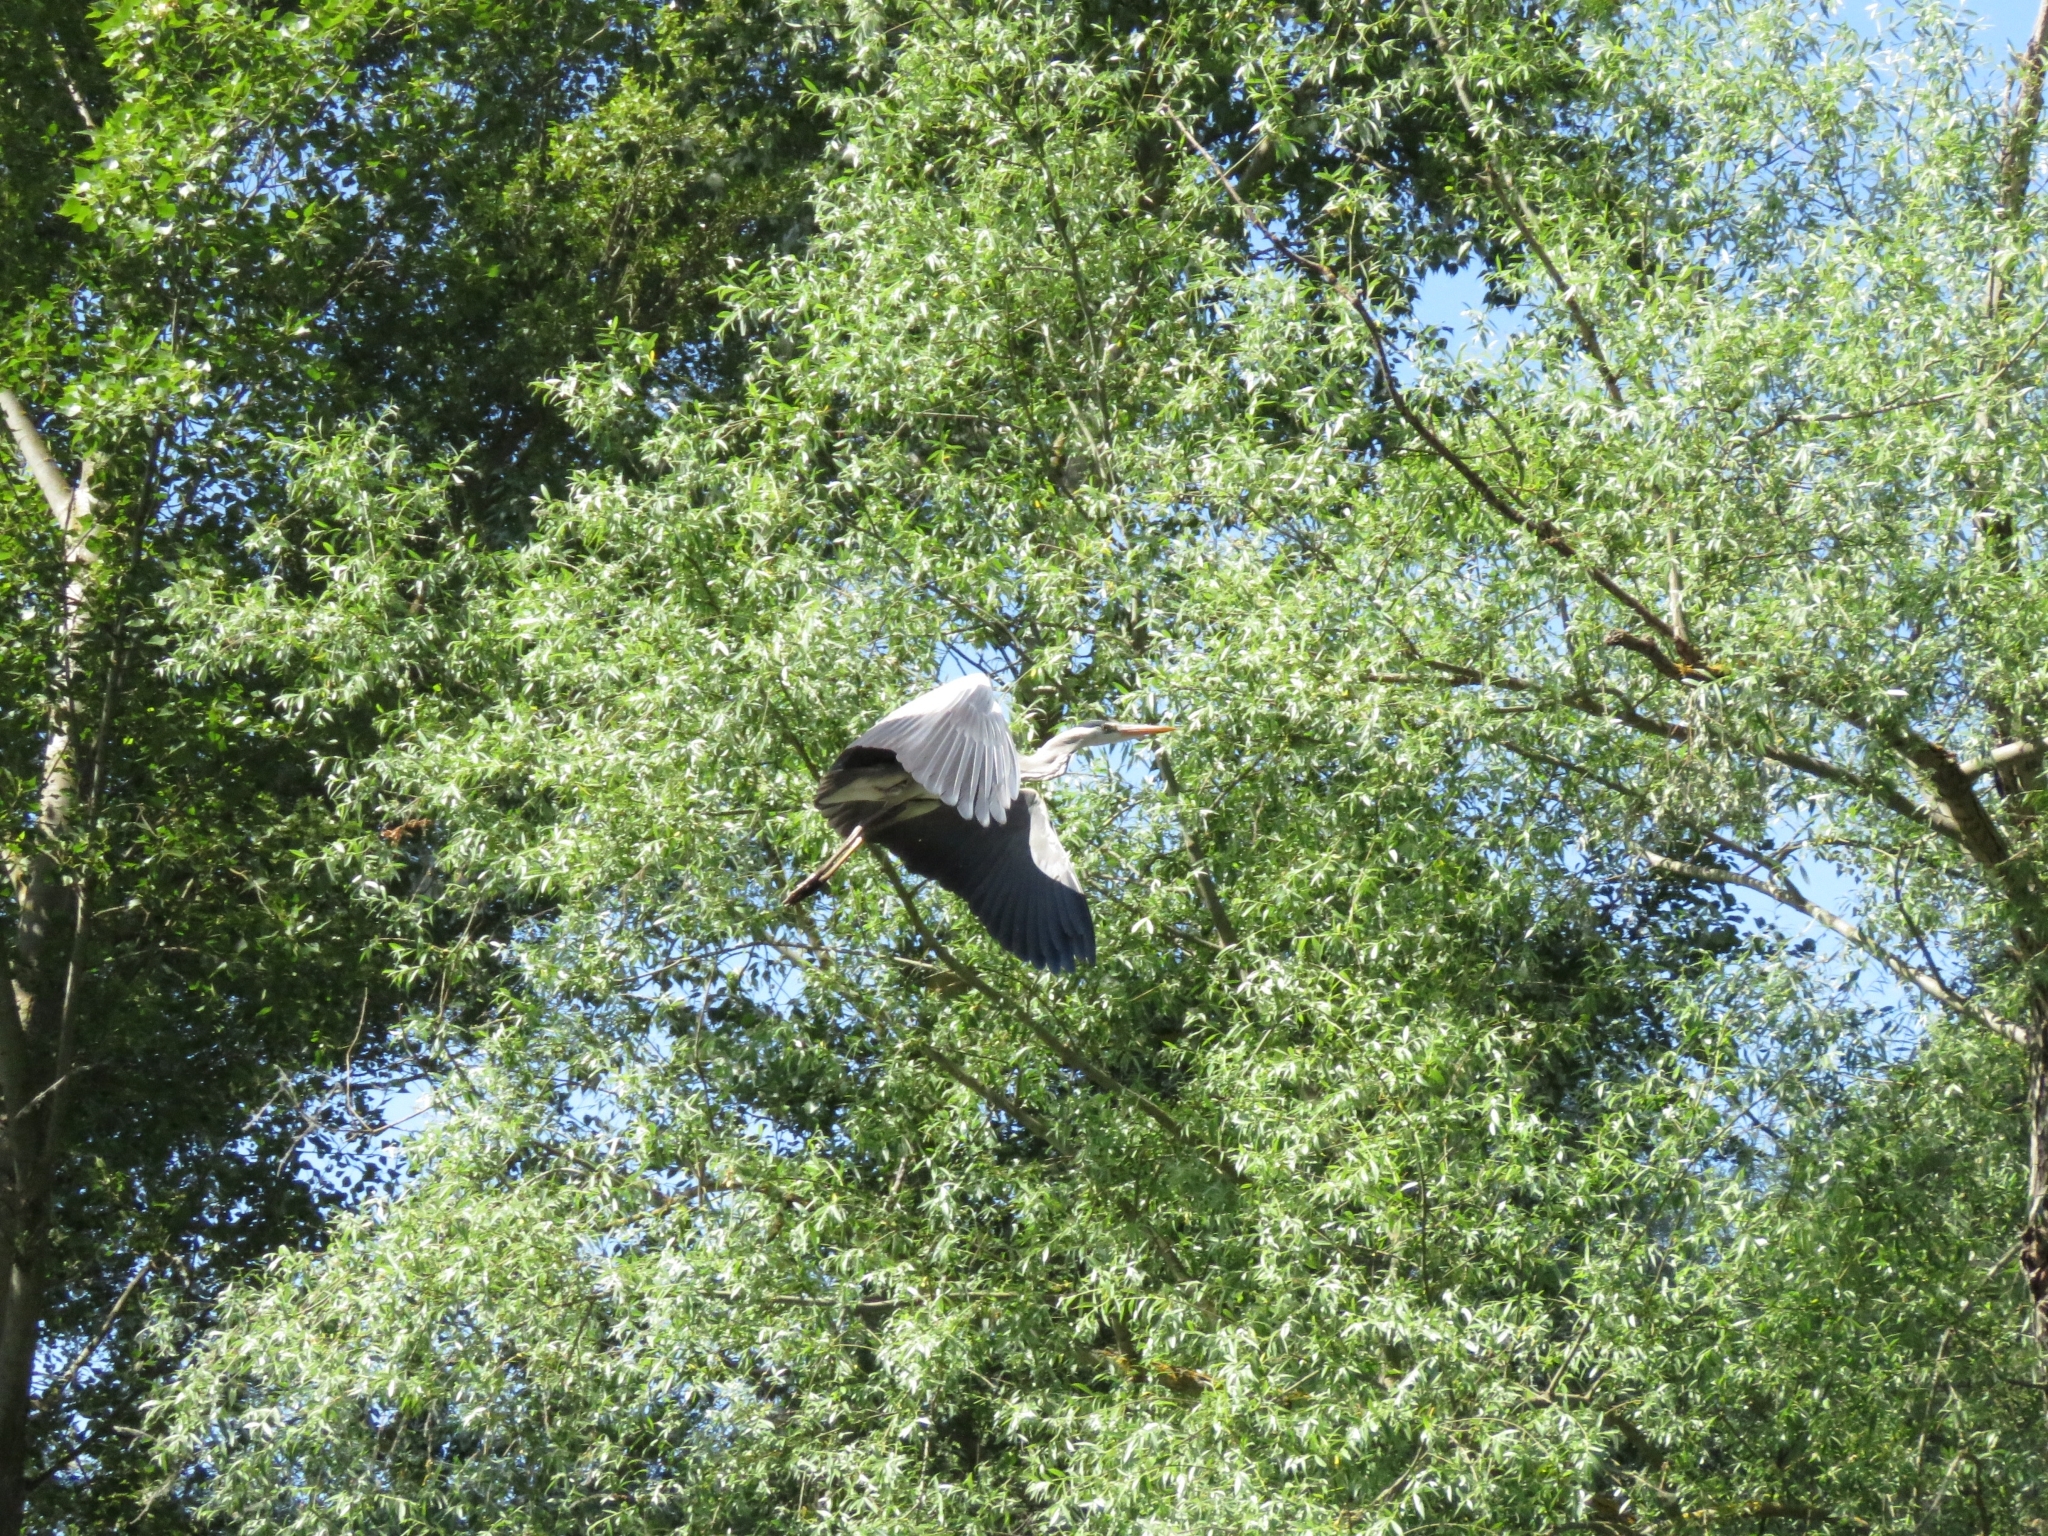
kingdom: Animalia
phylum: Chordata
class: Aves
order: Pelecaniformes
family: Ardeidae
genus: Ardea
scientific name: Ardea cinerea
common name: Grey heron
